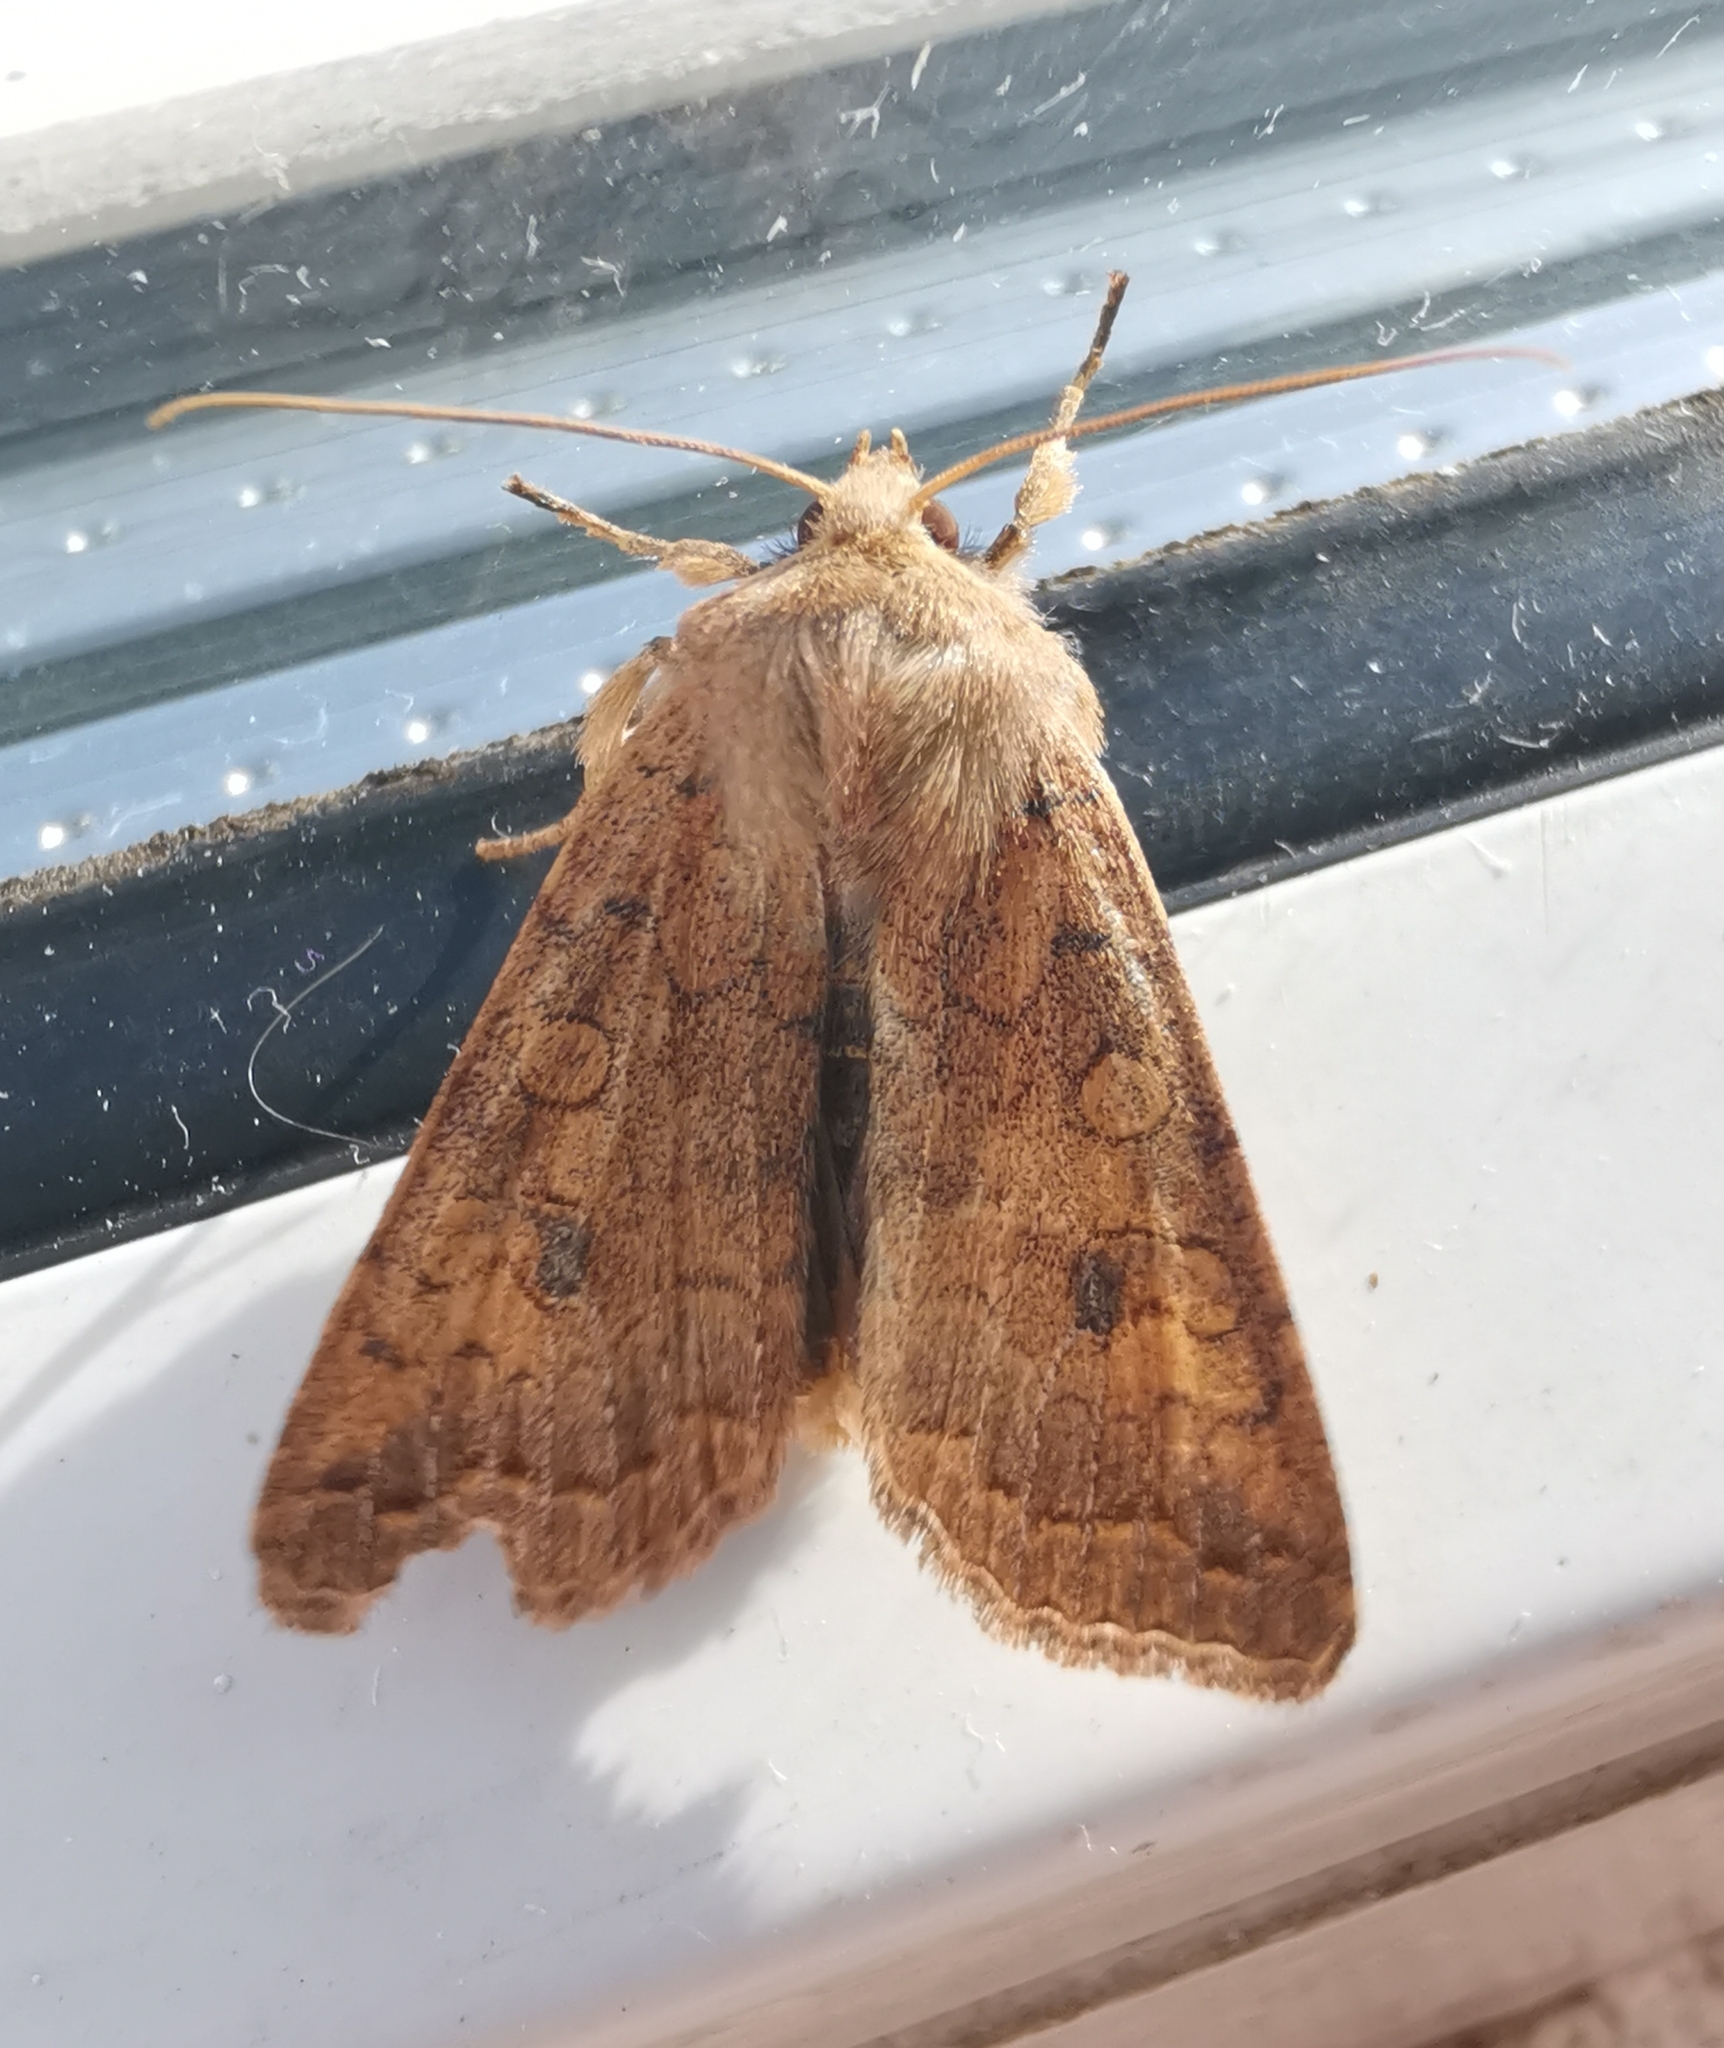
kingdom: Animalia
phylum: Arthropoda
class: Insecta
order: Lepidoptera
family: Noctuidae
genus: Sunira
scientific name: Sunira circellaris
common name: Brick
